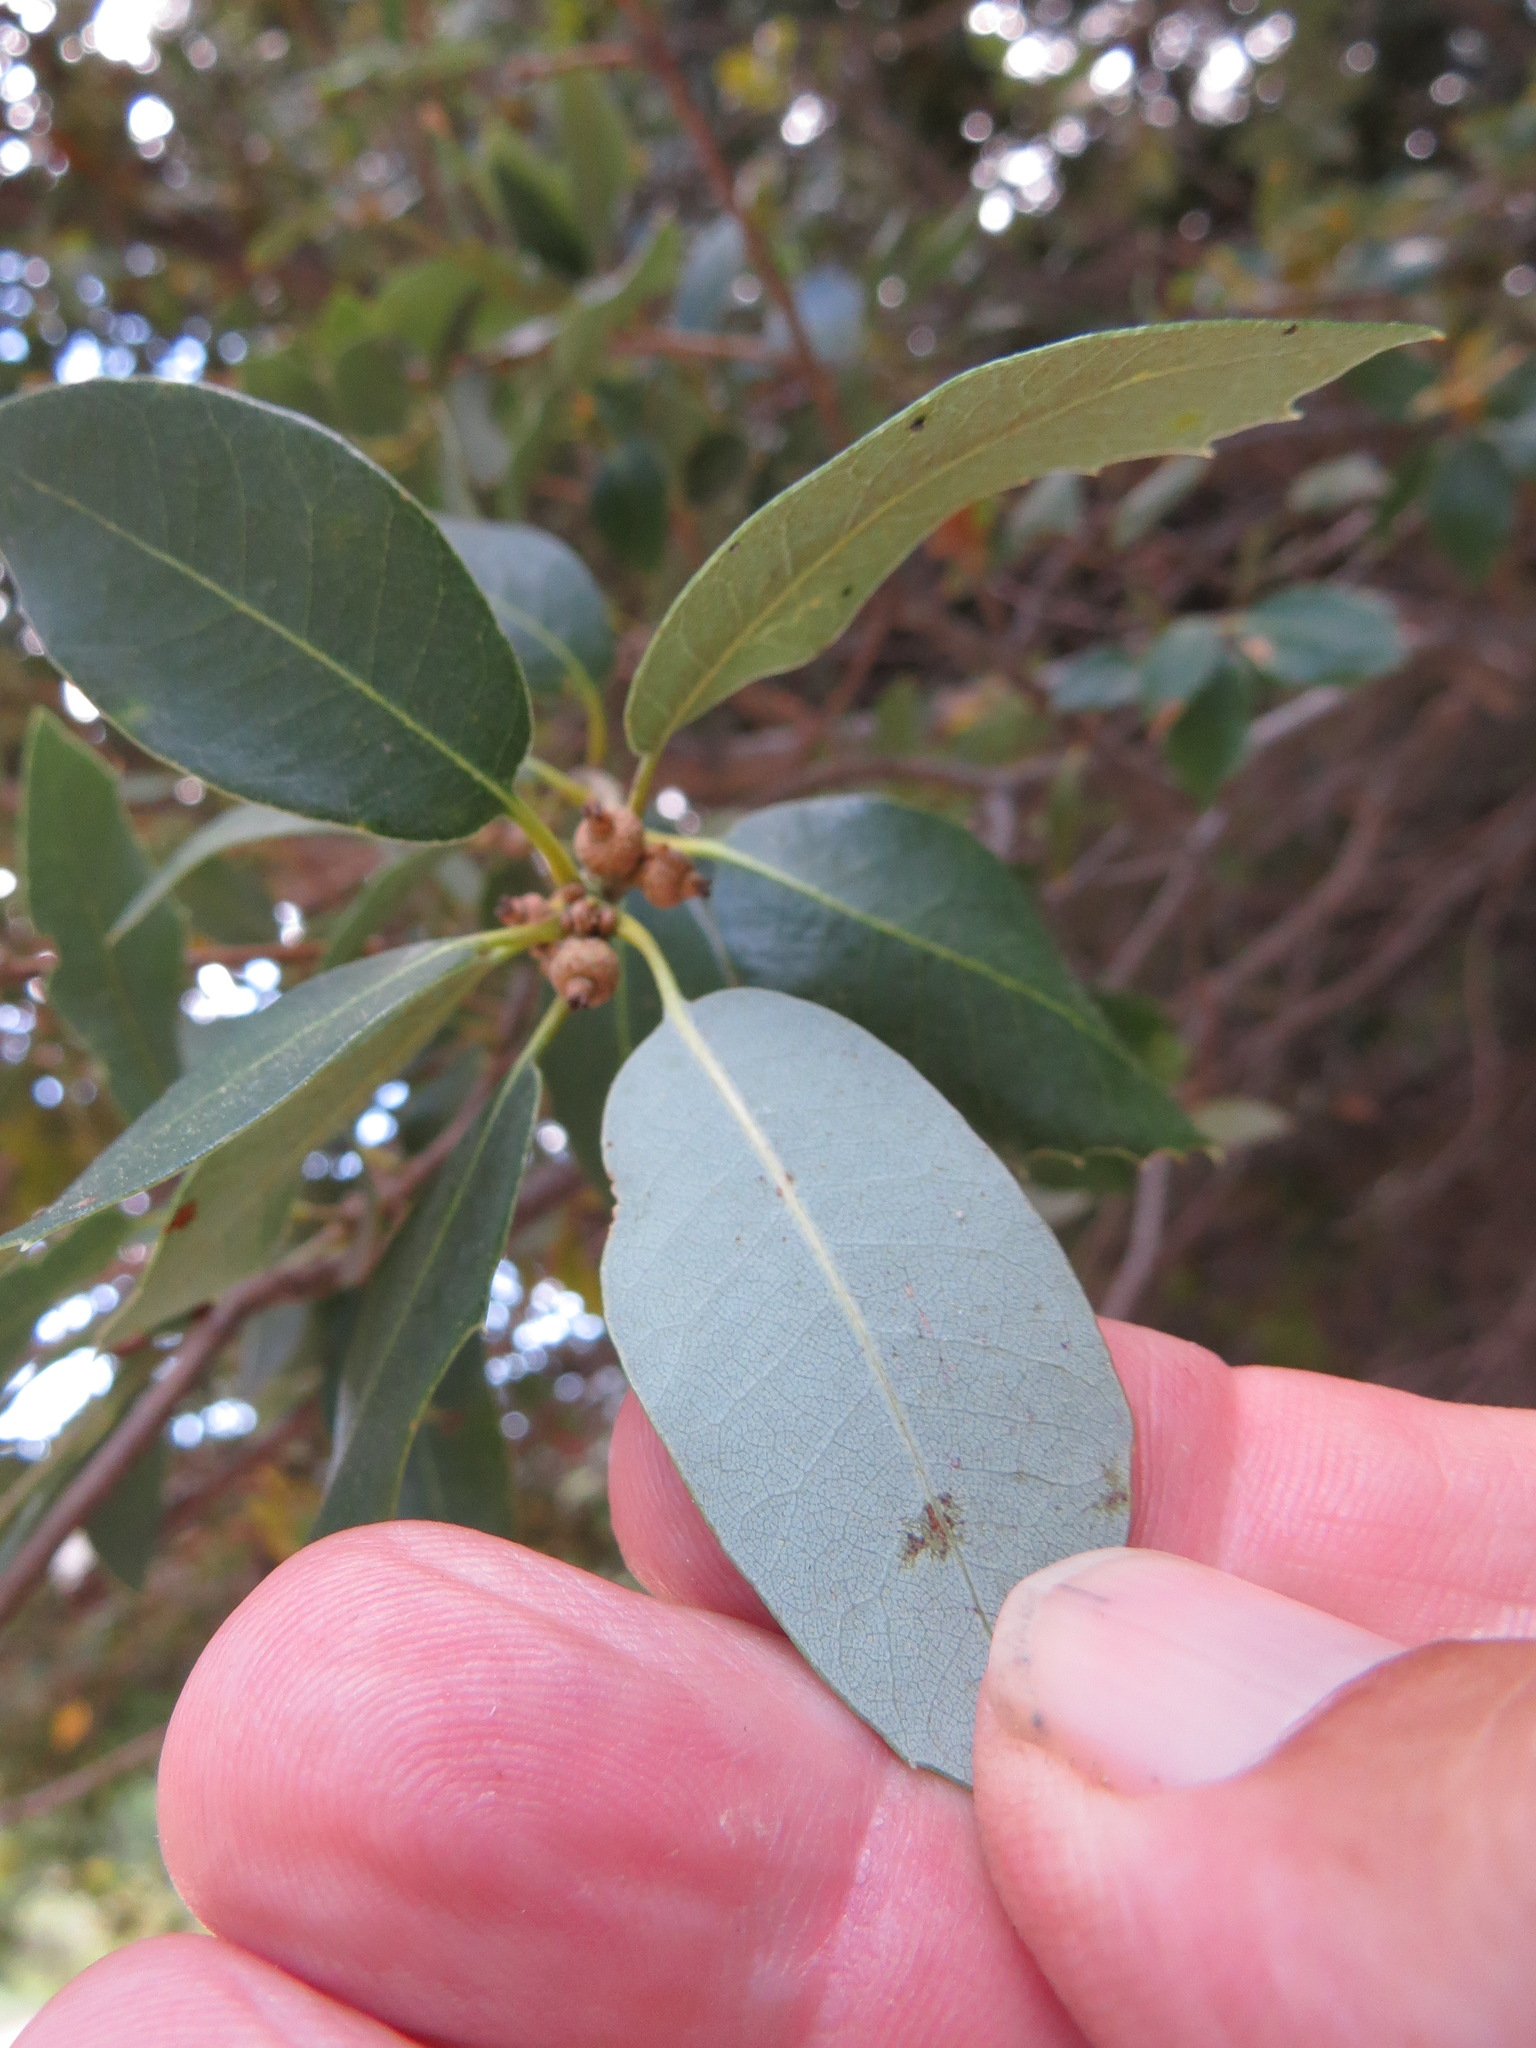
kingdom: Plantae
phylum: Tracheophyta
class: Magnoliopsida
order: Fagales
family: Fagaceae
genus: Quercus
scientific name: Quercus chrysolepis
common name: Canyon live oak
